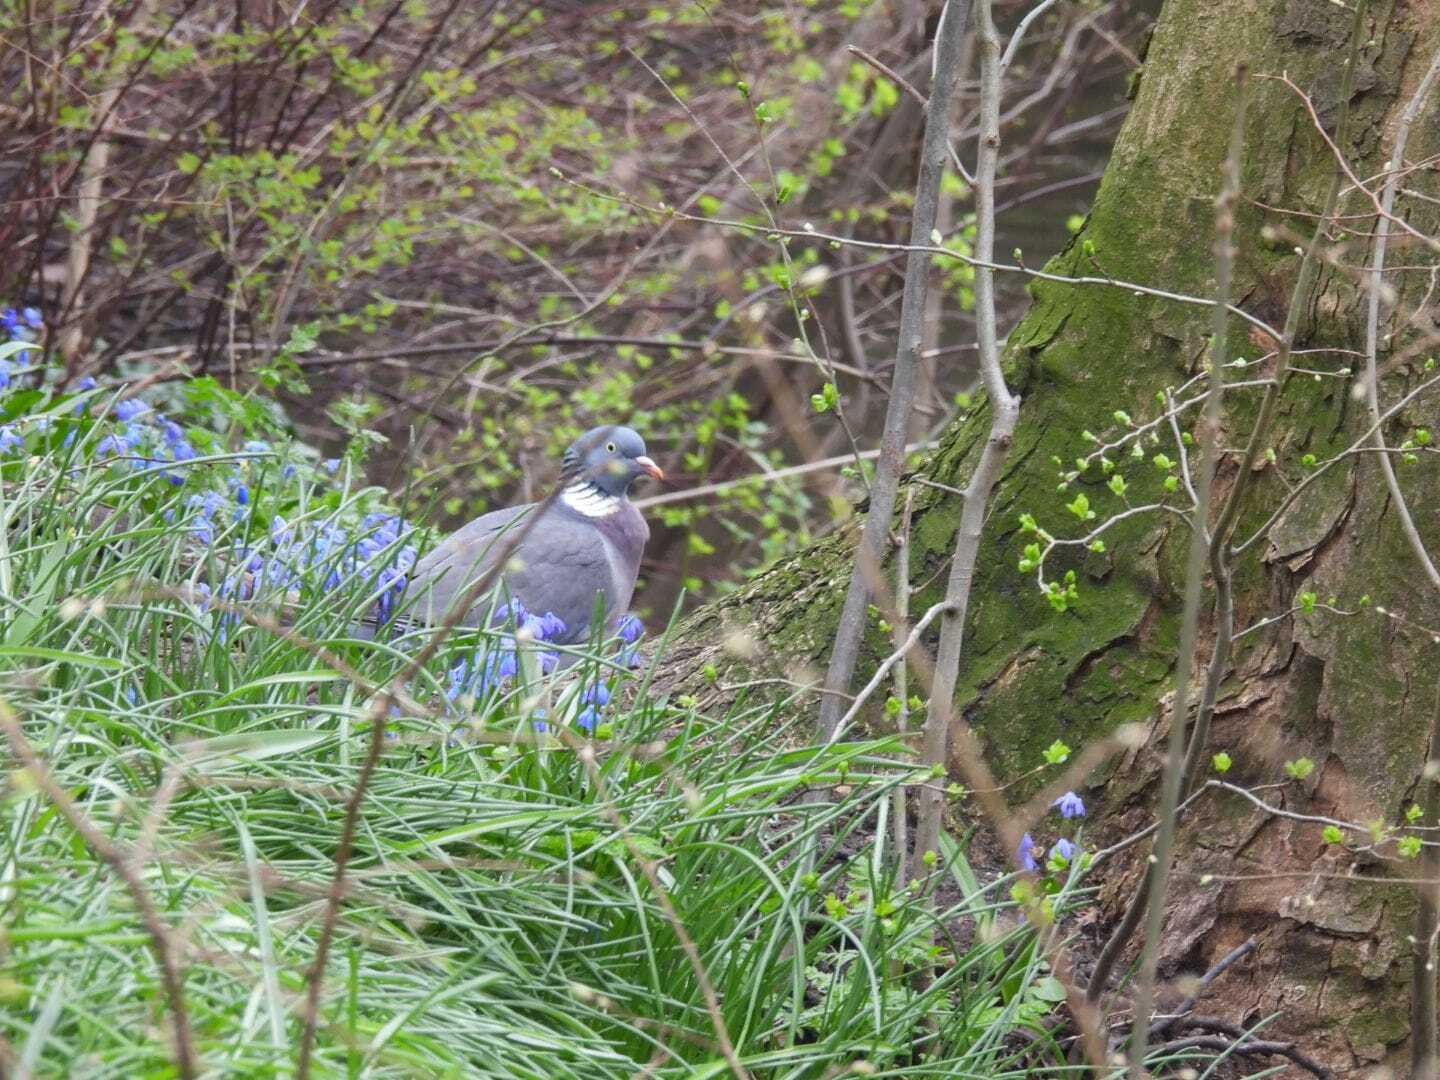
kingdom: Animalia
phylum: Chordata
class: Aves
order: Columbiformes
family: Columbidae
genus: Columba
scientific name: Columba palumbus
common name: Common wood pigeon
